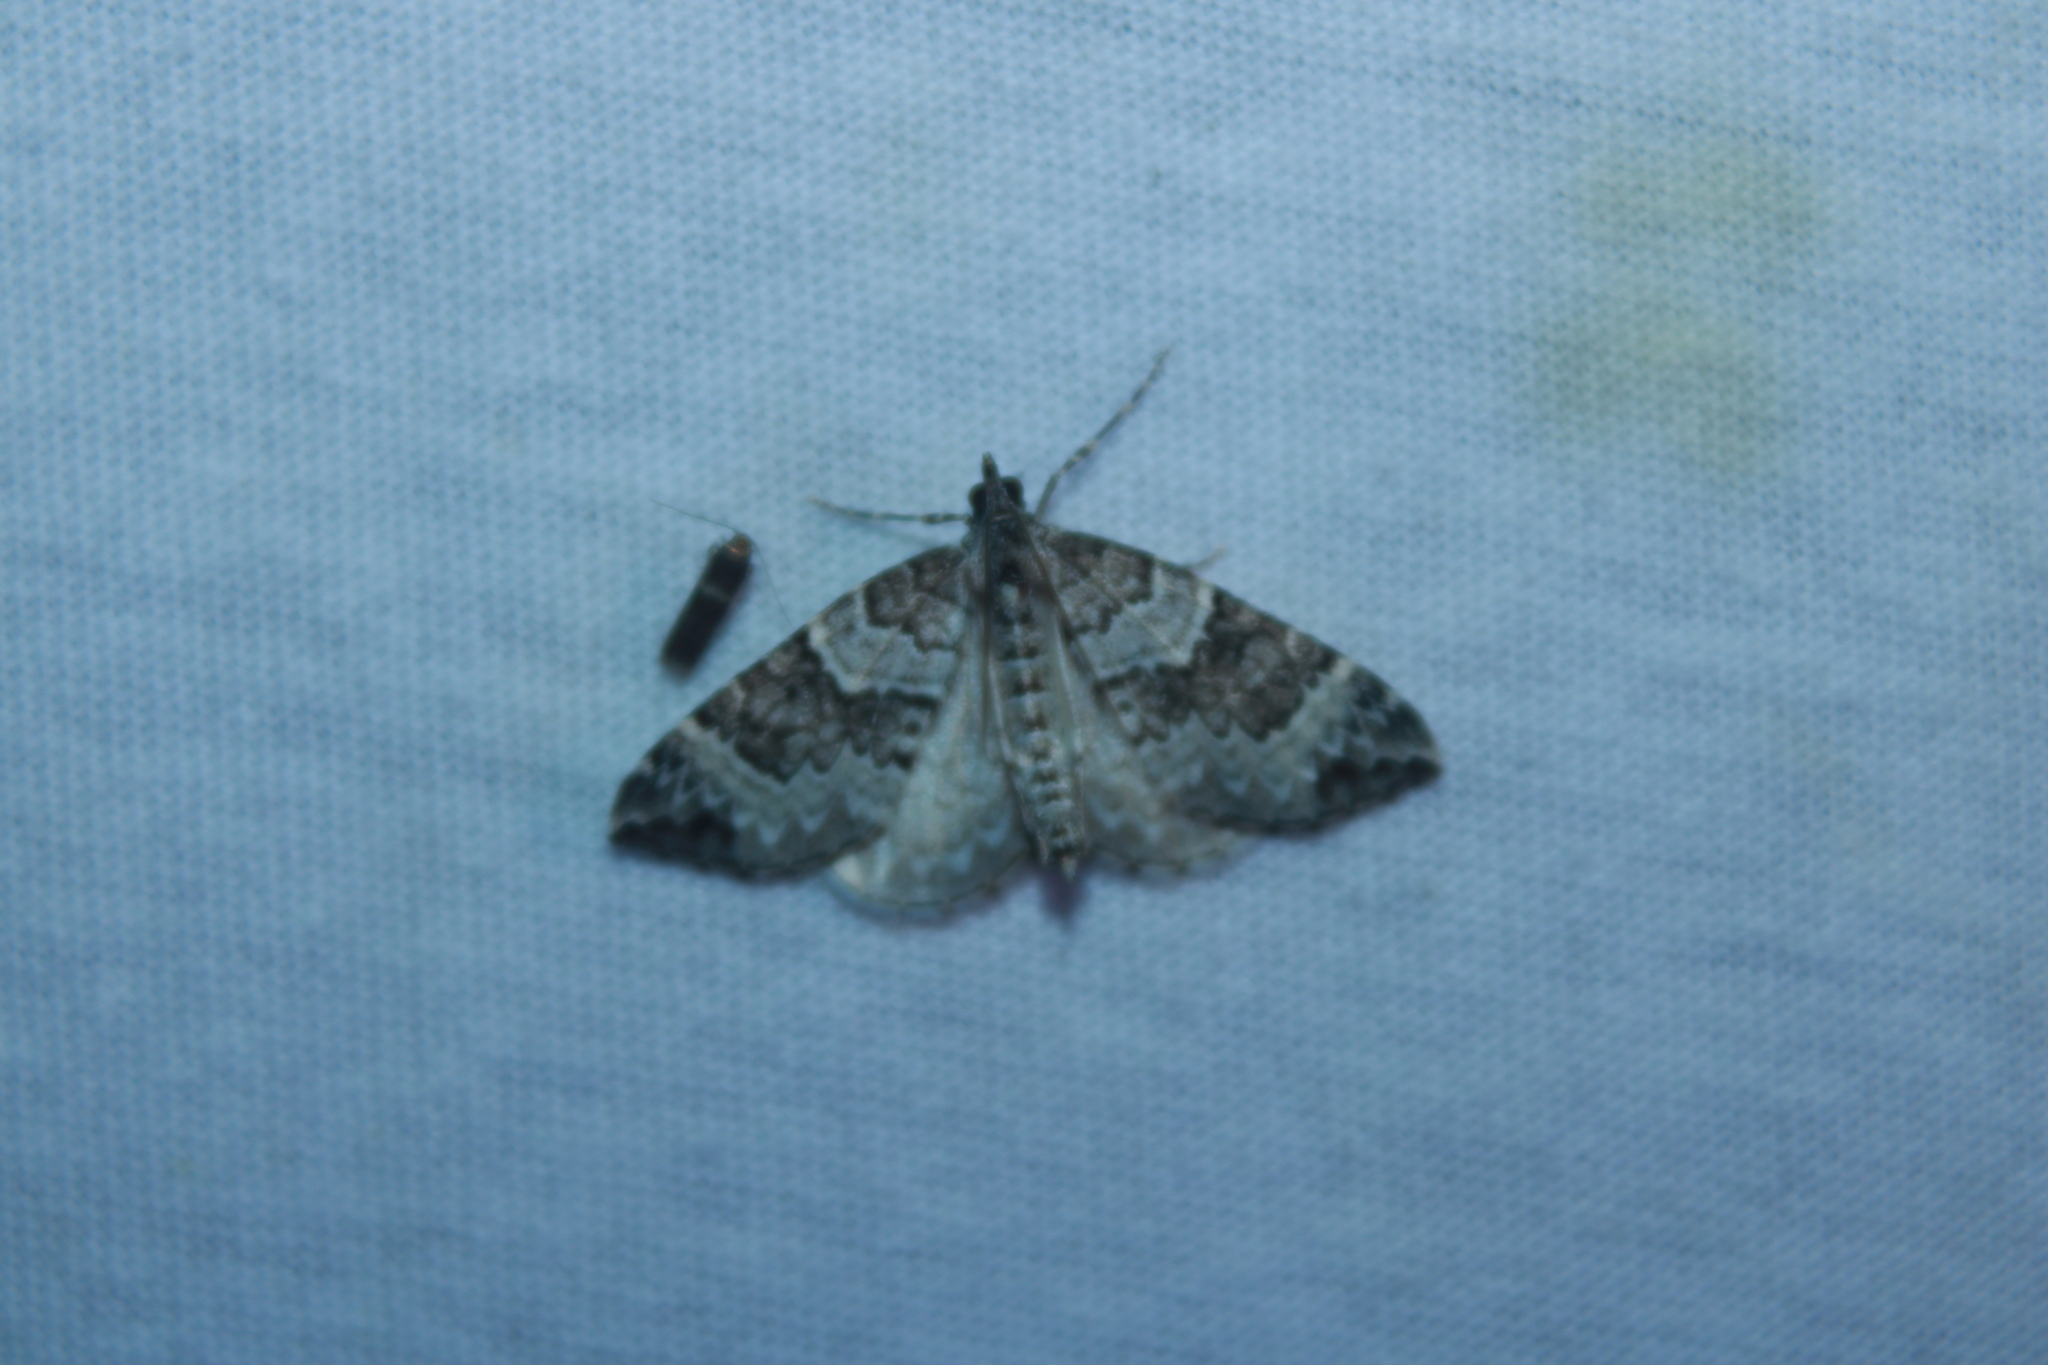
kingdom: Animalia
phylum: Arthropoda
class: Insecta
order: Lepidoptera
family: Geometridae
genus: Eulithis
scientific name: Eulithis explanata
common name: White eulithis
